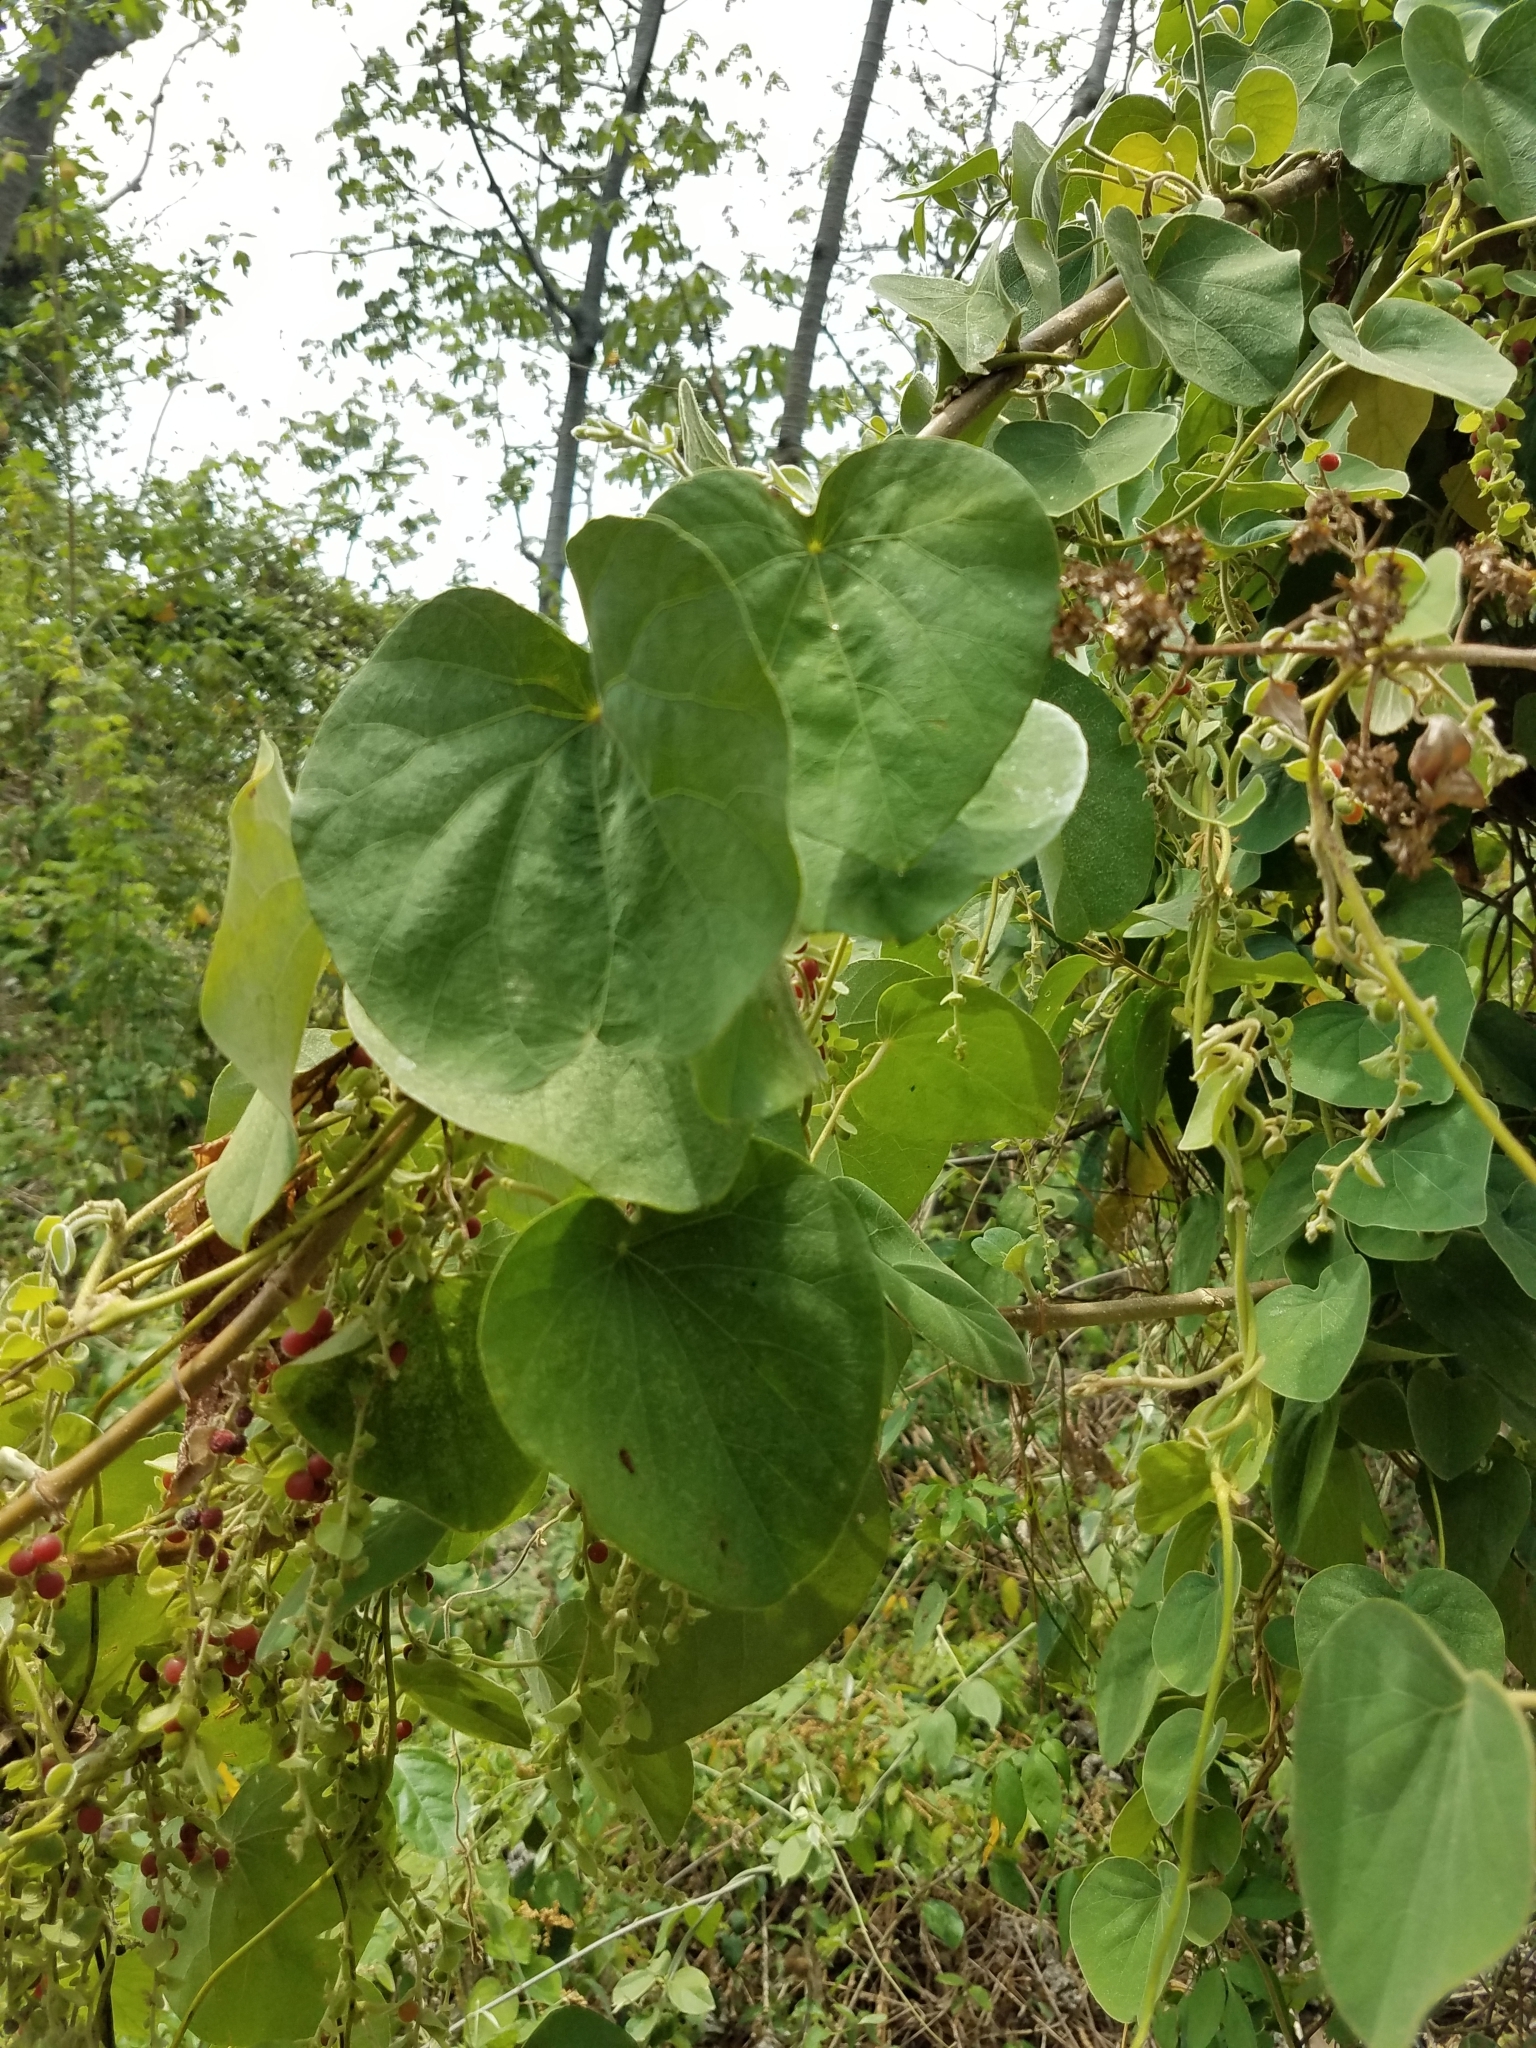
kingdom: Plantae
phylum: Tracheophyta
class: Magnoliopsida
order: Ranunculales
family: Menispermaceae
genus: Cissampelos
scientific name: Cissampelos pareira
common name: Velvetleaf
